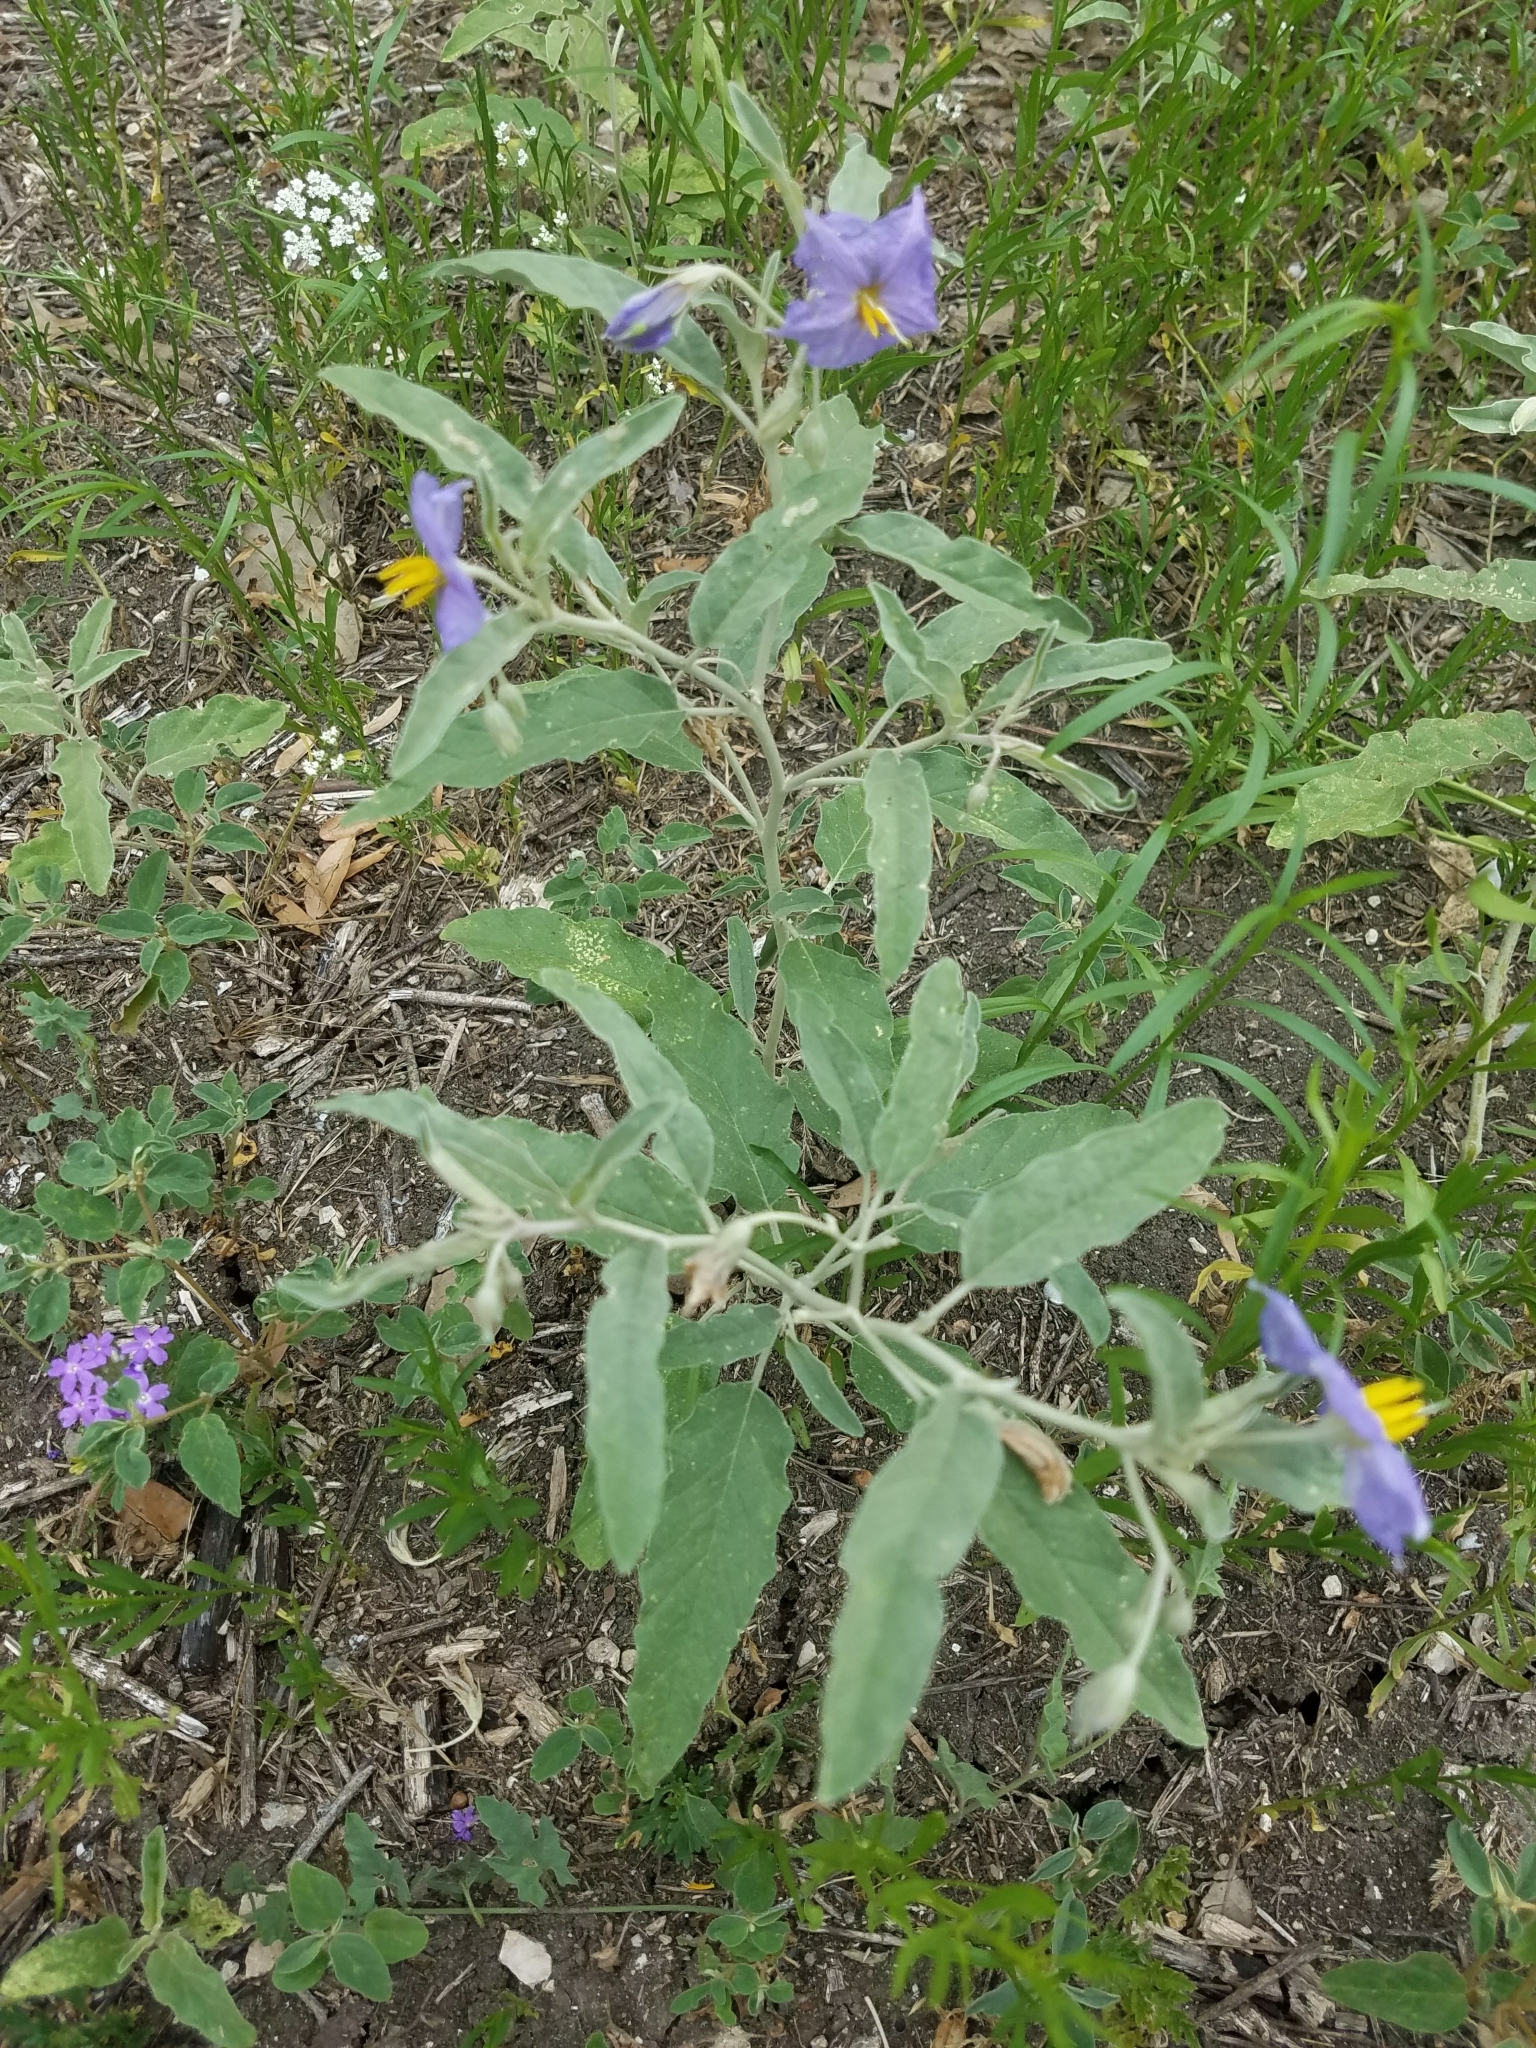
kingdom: Plantae
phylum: Tracheophyta
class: Magnoliopsida
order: Solanales
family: Solanaceae
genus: Solanum
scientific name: Solanum elaeagnifolium
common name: Silverleaf nightshade
